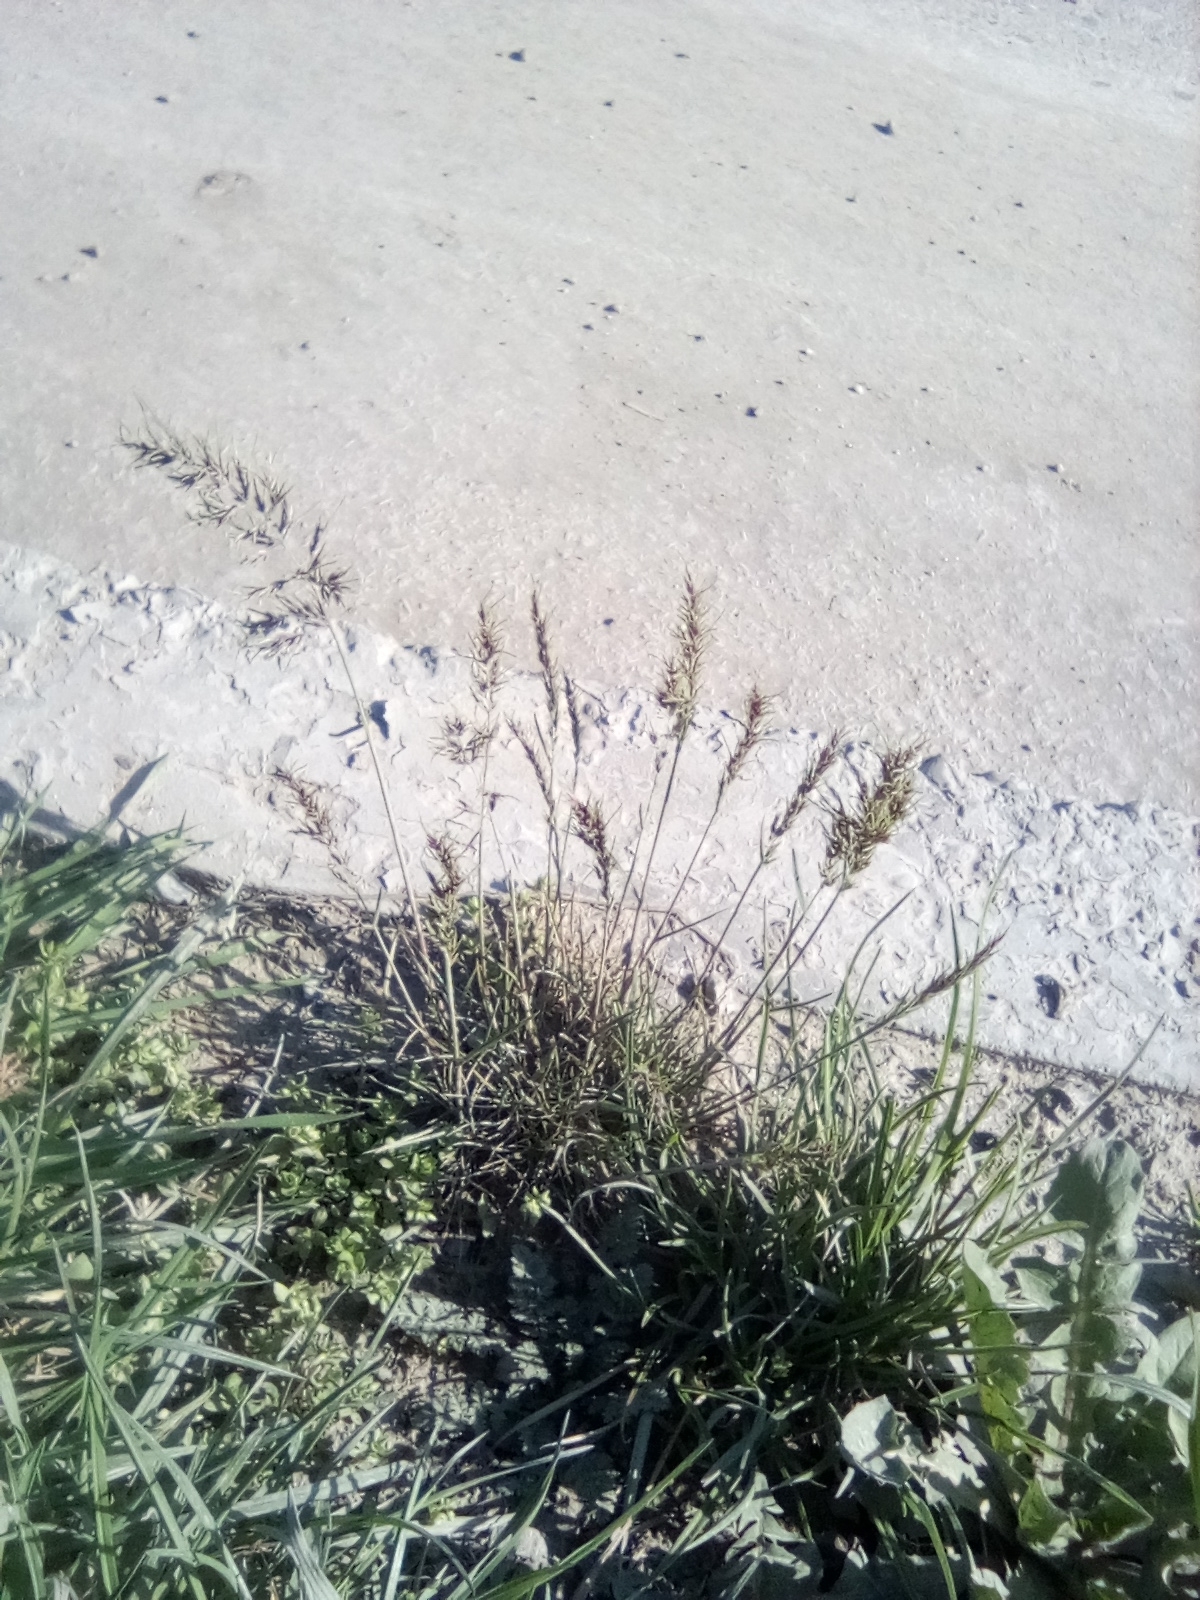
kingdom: Plantae
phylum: Tracheophyta
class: Liliopsida
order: Poales
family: Poaceae
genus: Poa
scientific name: Poa bulbosa
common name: Bulbous bluegrass
